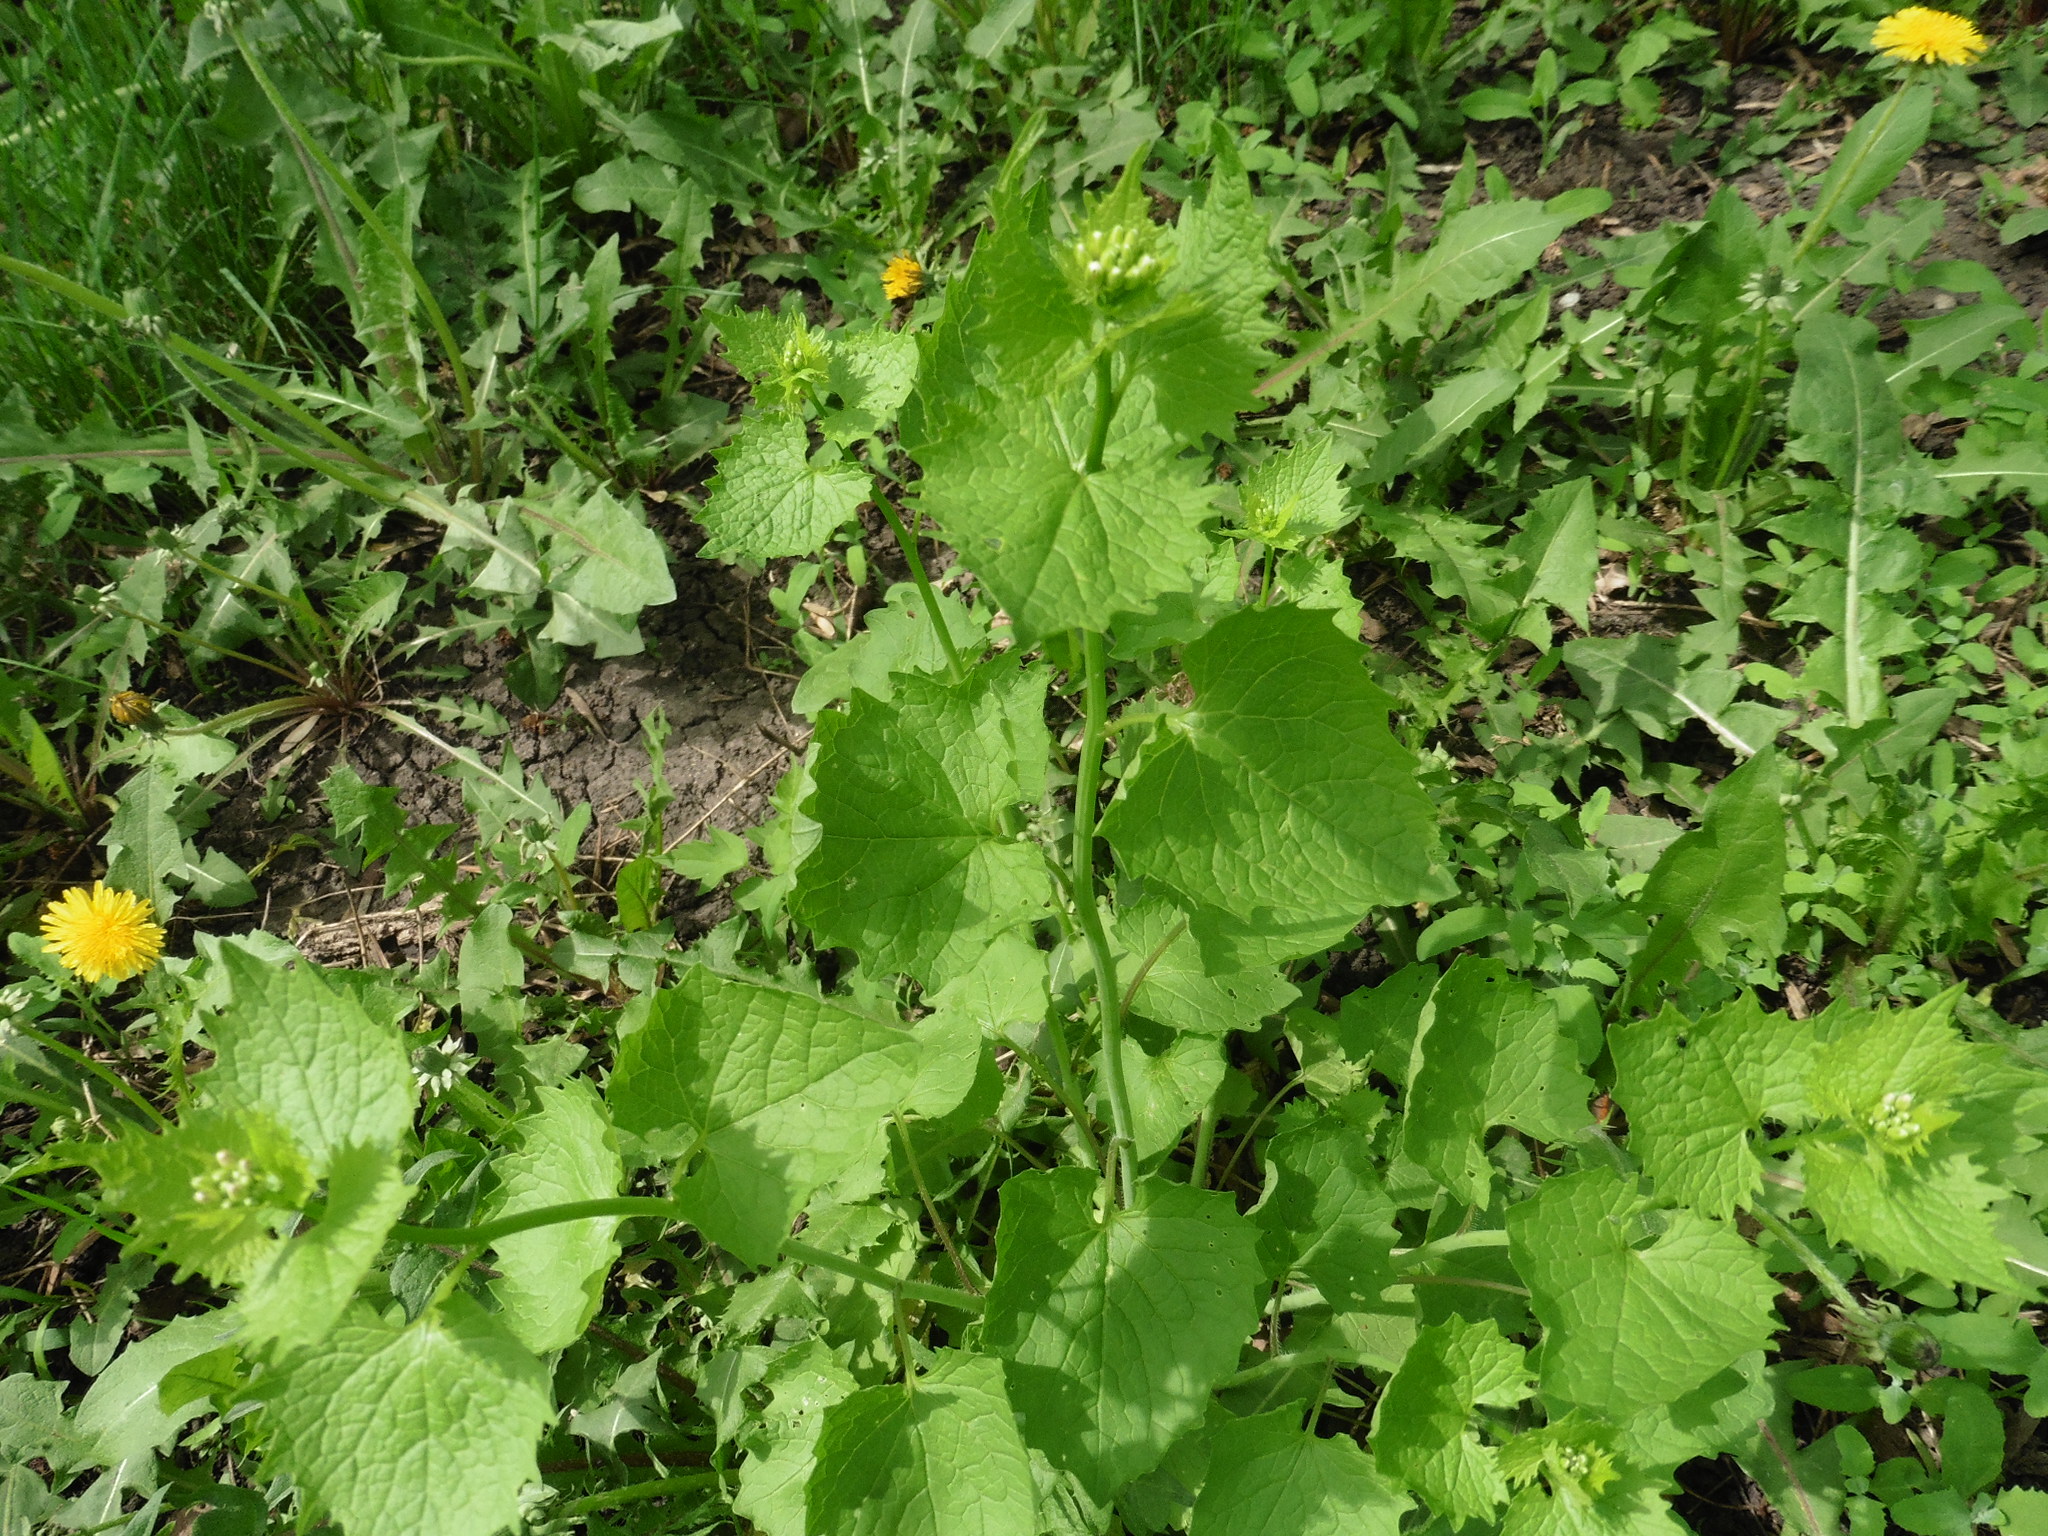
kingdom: Plantae
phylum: Tracheophyta
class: Magnoliopsida
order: Brassicales
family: Brassicaceae
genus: Alliaria
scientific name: Alliaria petiolata
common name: Garlic mustard
